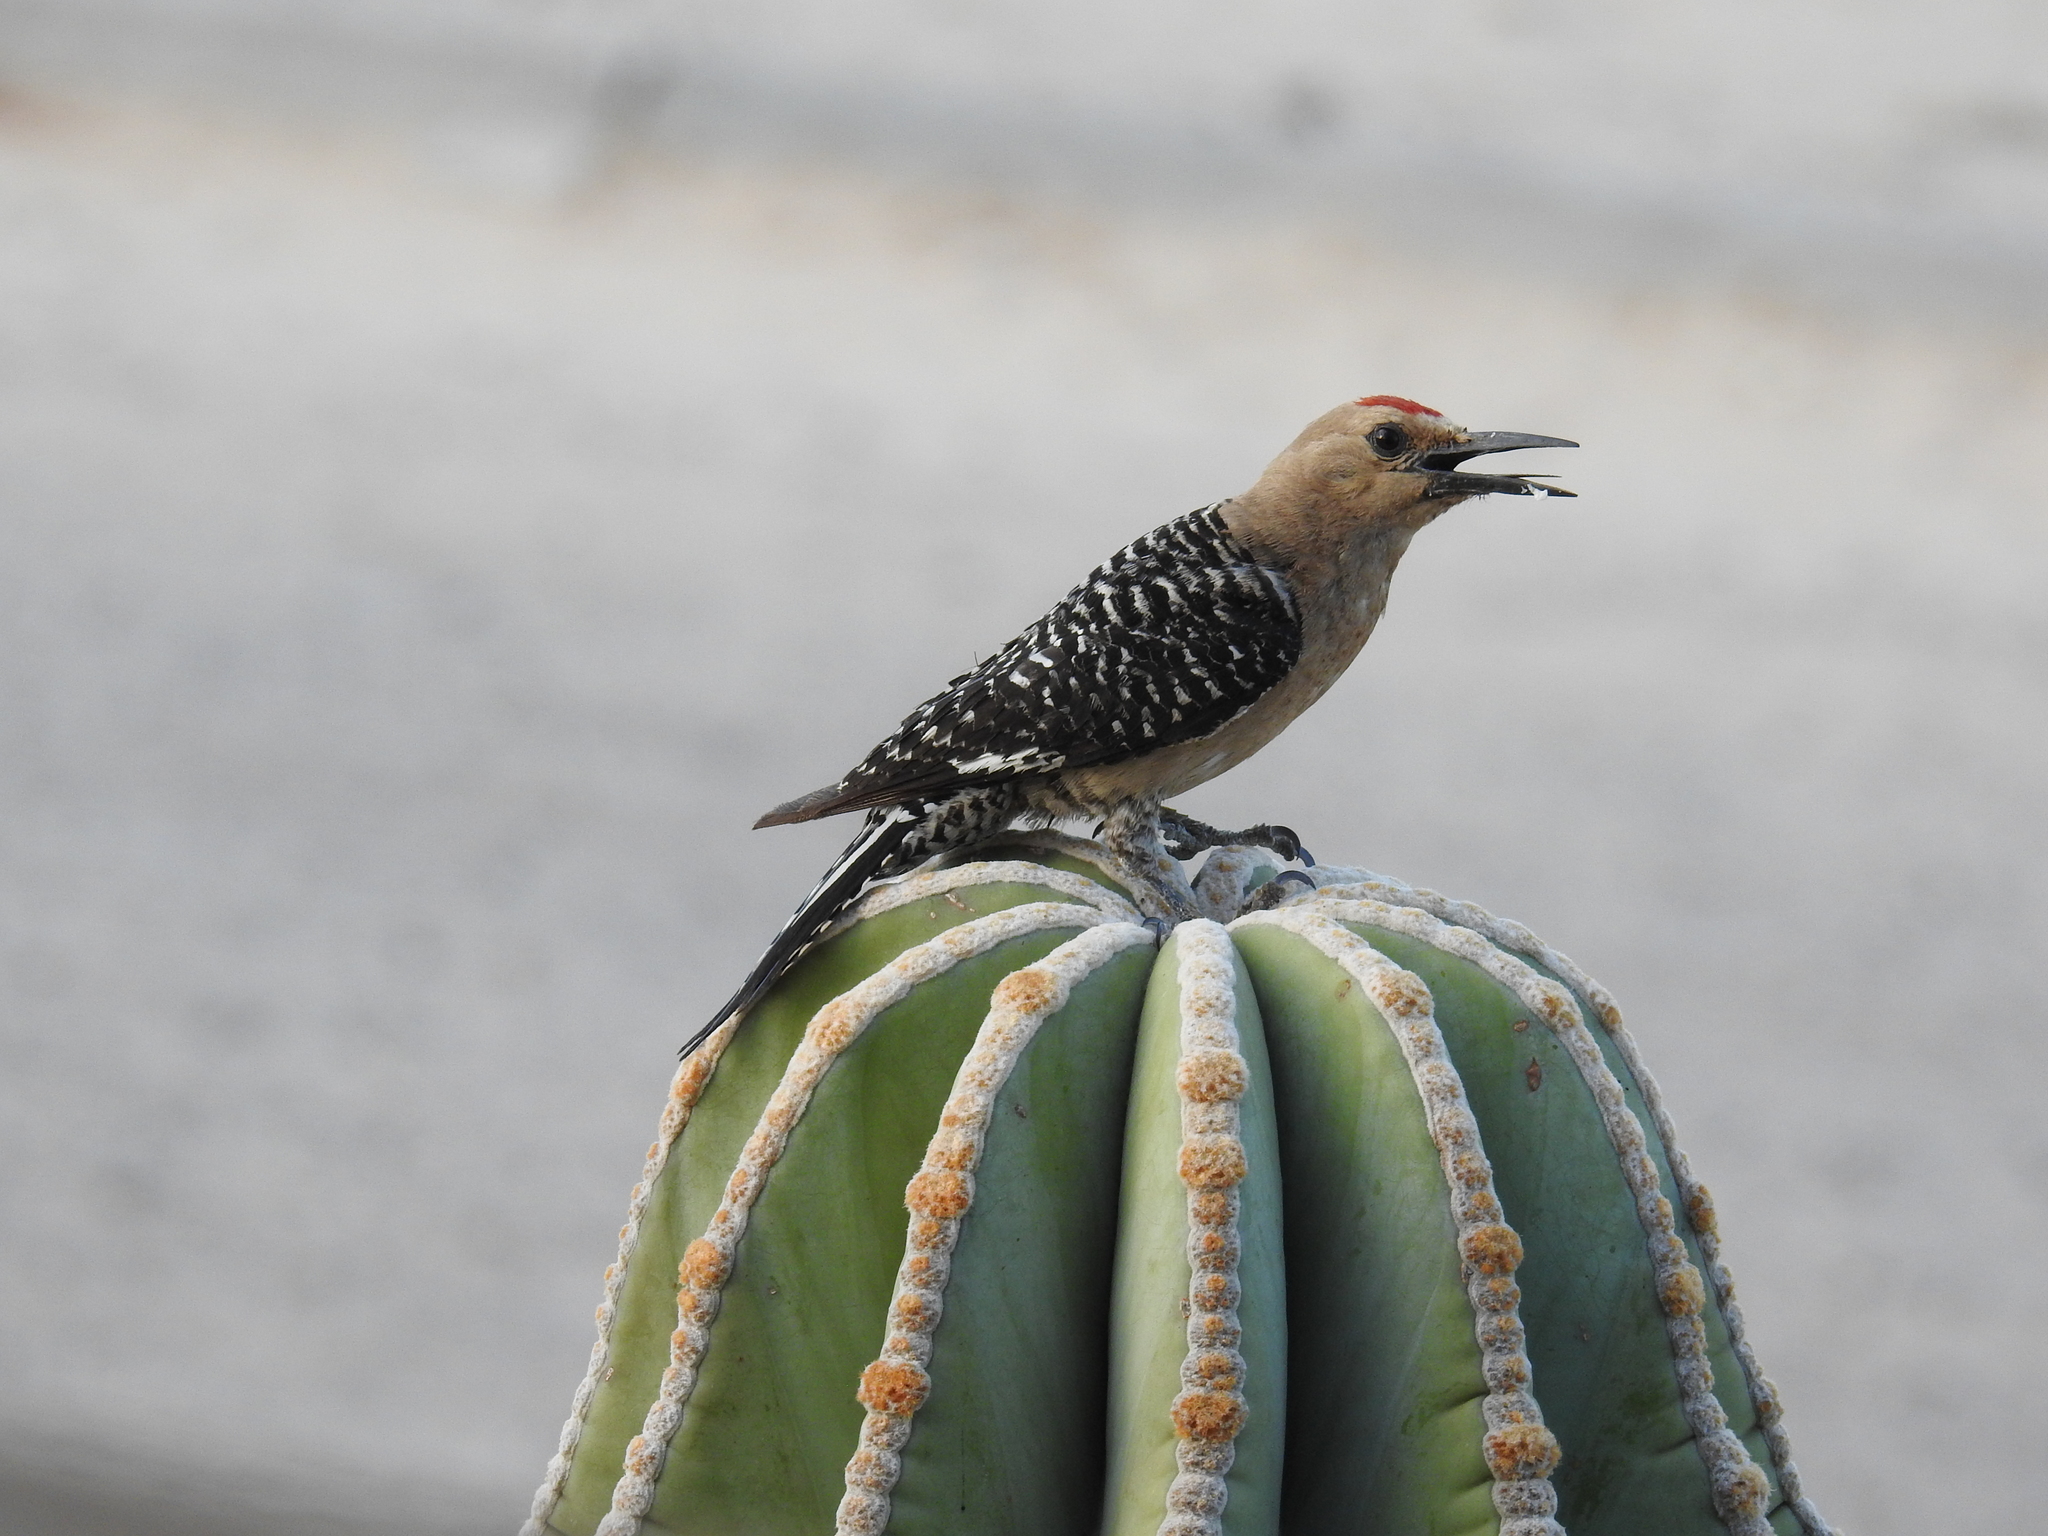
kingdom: Animalia
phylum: Chordata
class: Aves
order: Piciformes
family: Picidae
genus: Melanerpes
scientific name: Melanerpes uropygialis
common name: Gila woodpecker
